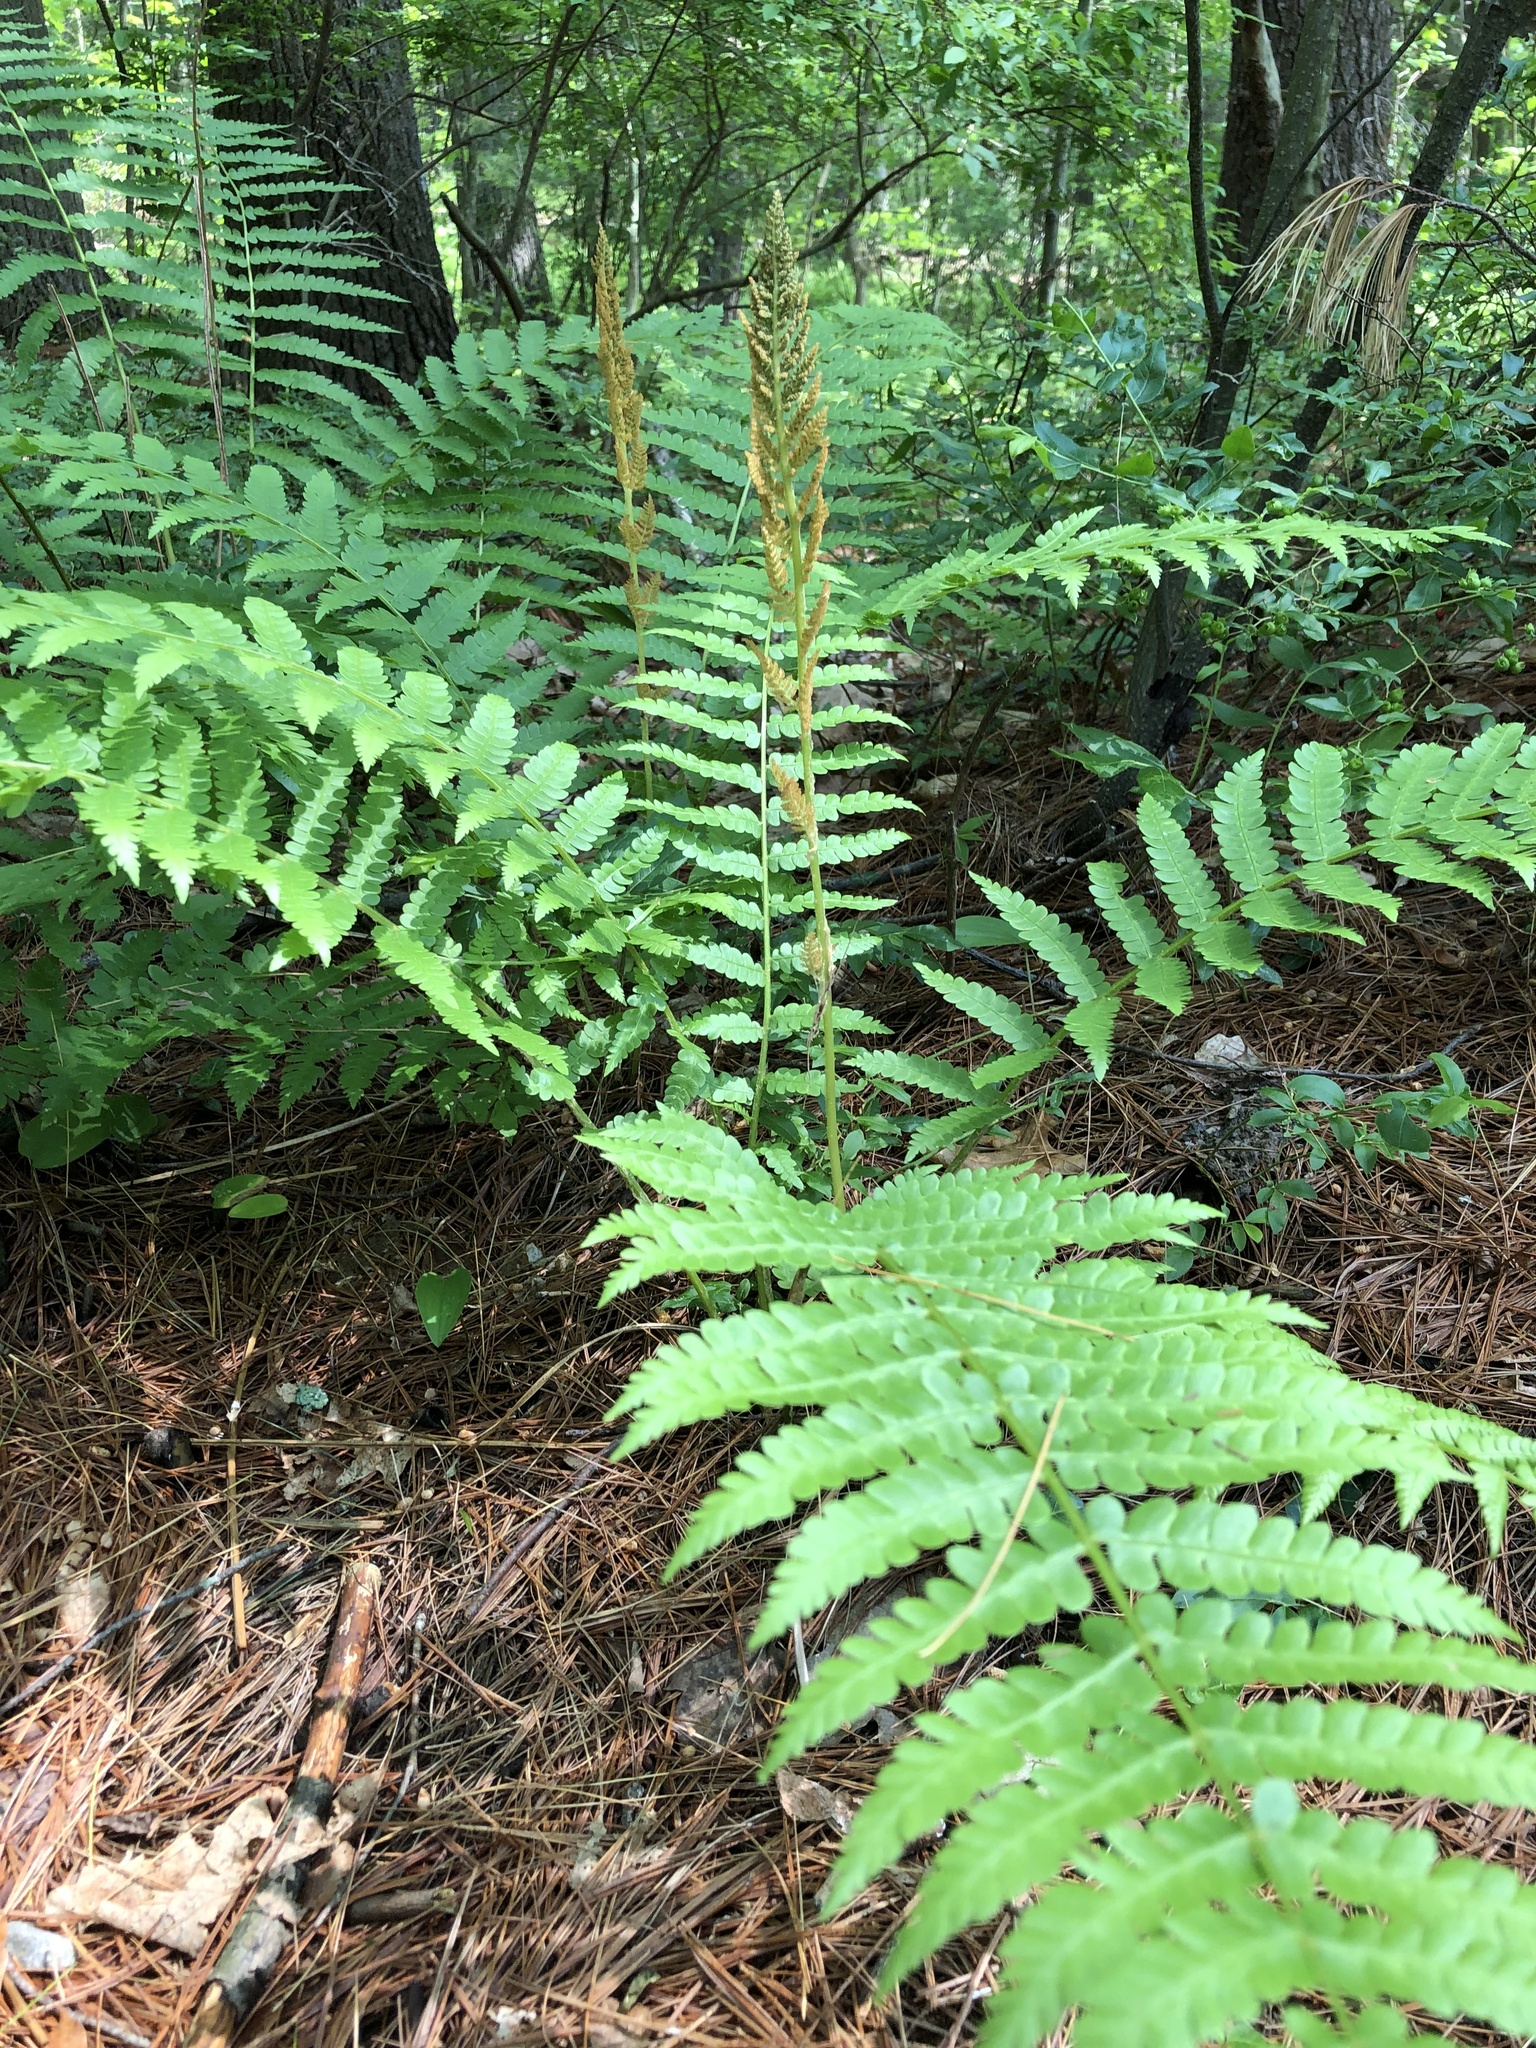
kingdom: Plantae
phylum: Tracheophyta
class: Polypodiopsida
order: Osmundales
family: Osmundaceae
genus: Osmundastrum
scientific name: Osmundastrum cinnamomeum
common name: Cinnamon fern
